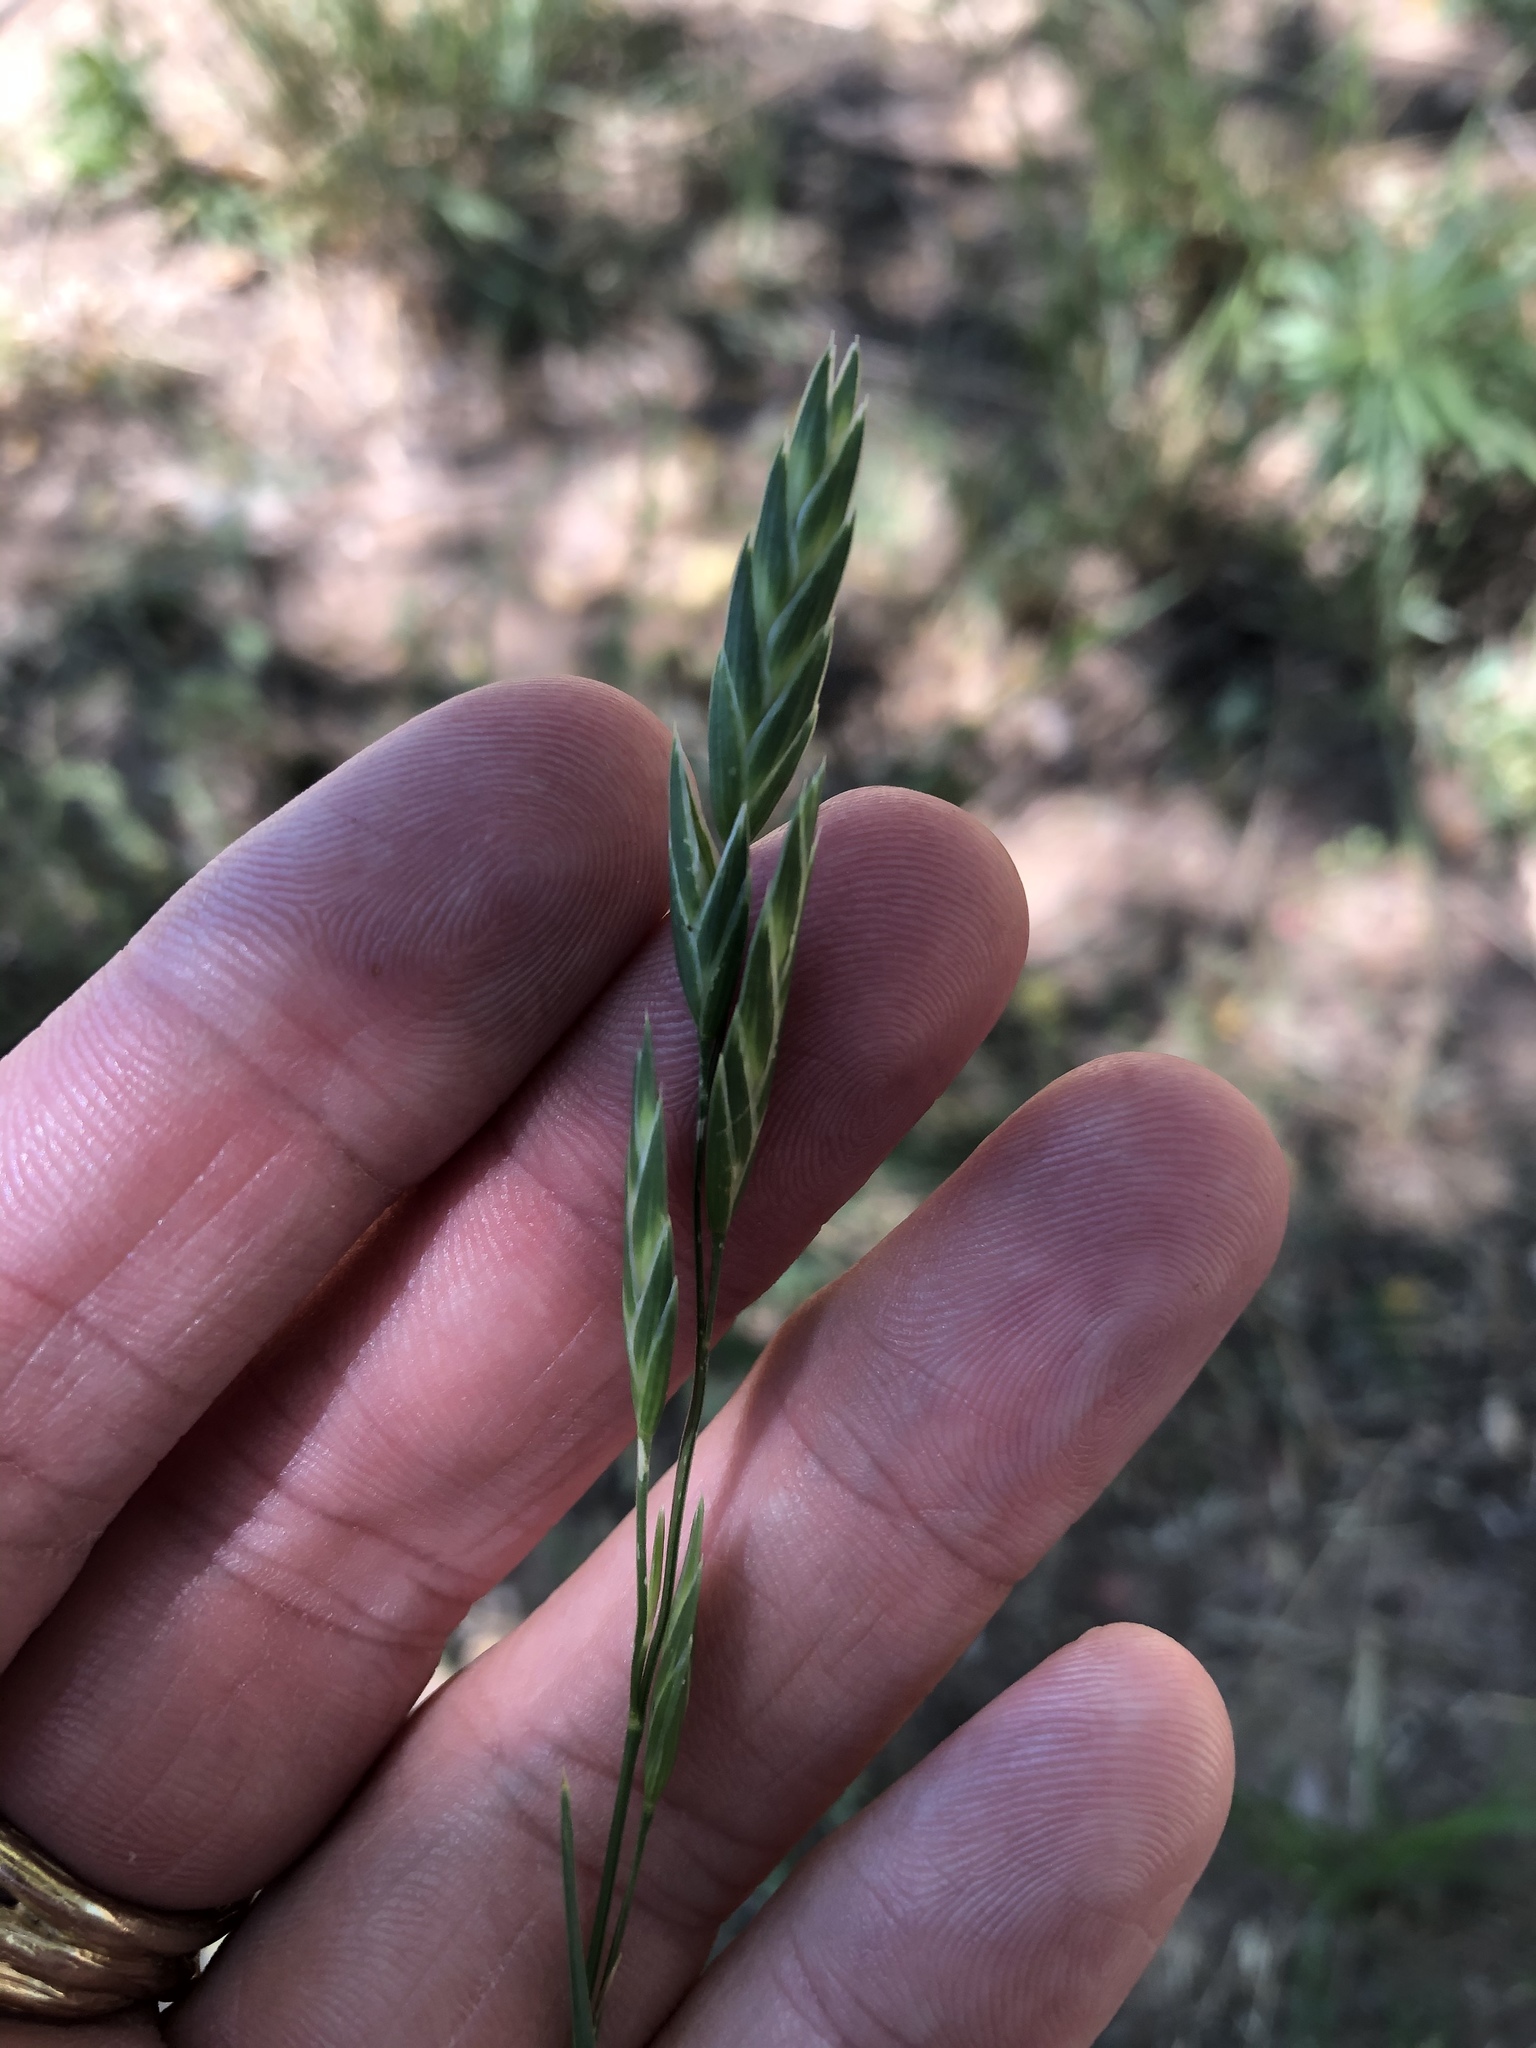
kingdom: Plantae
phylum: Tracheophyta
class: Liliopsida
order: Poales
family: Poaceae
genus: Bromus
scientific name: Bromus catharticus
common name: Rescuegrass
